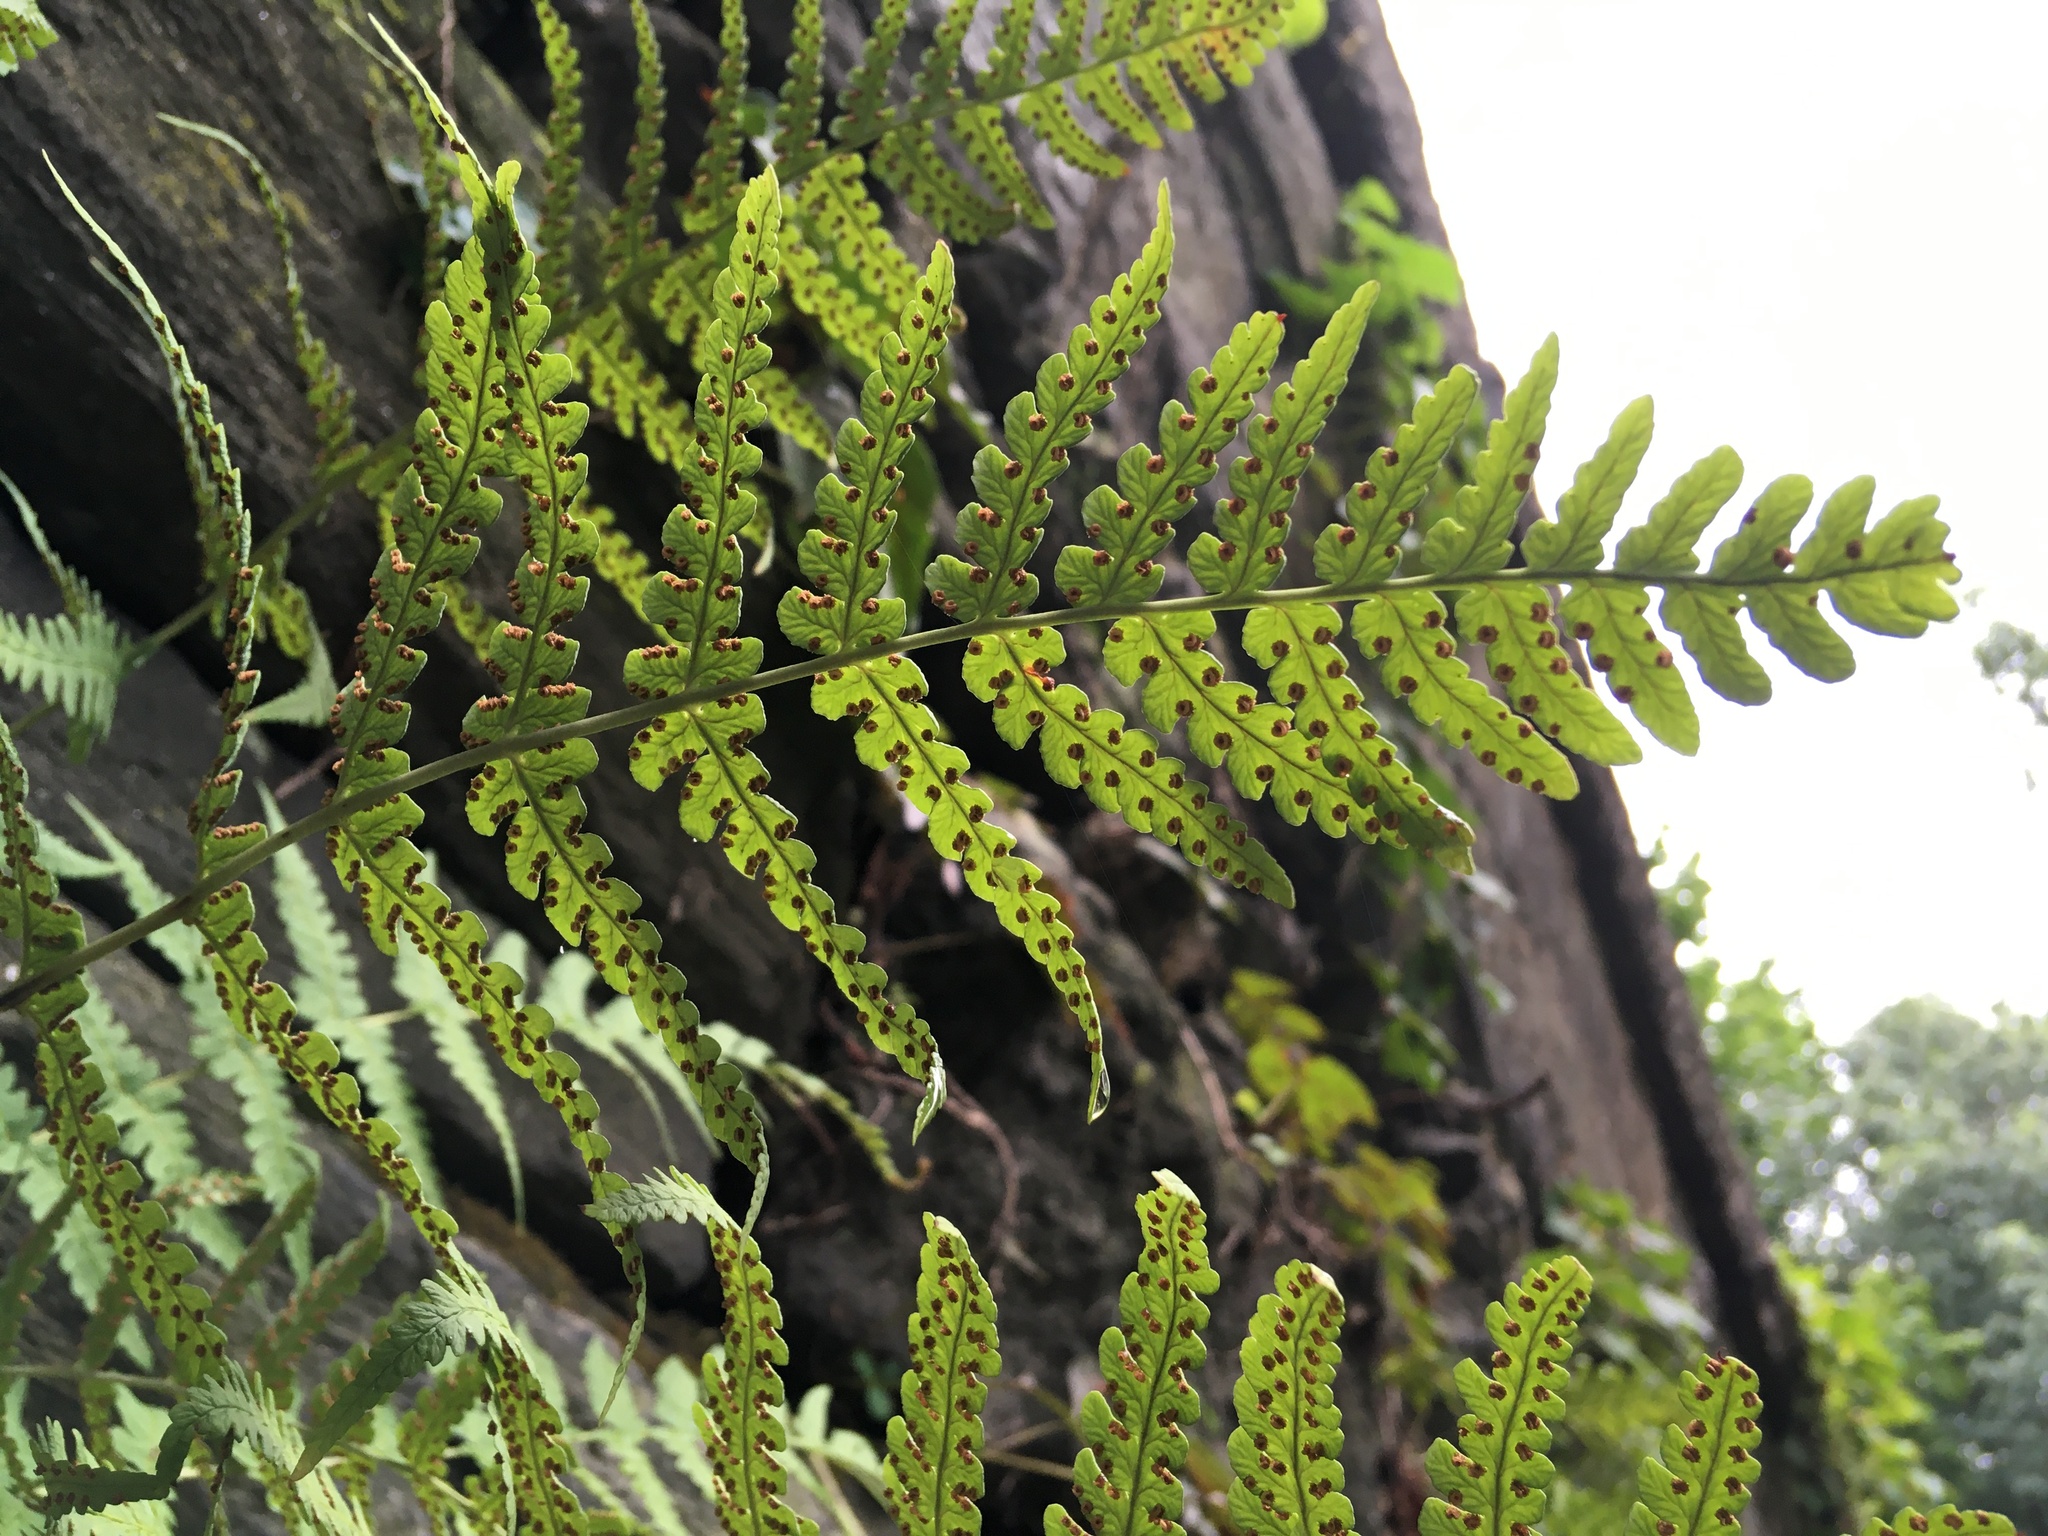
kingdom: Plantae
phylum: Tracheophyta
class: Polypodiopsida
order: Polypodiales
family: Dryopteridaceae
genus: Dryopteris
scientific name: Dryopteris marginalis
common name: Marginal wood fern
